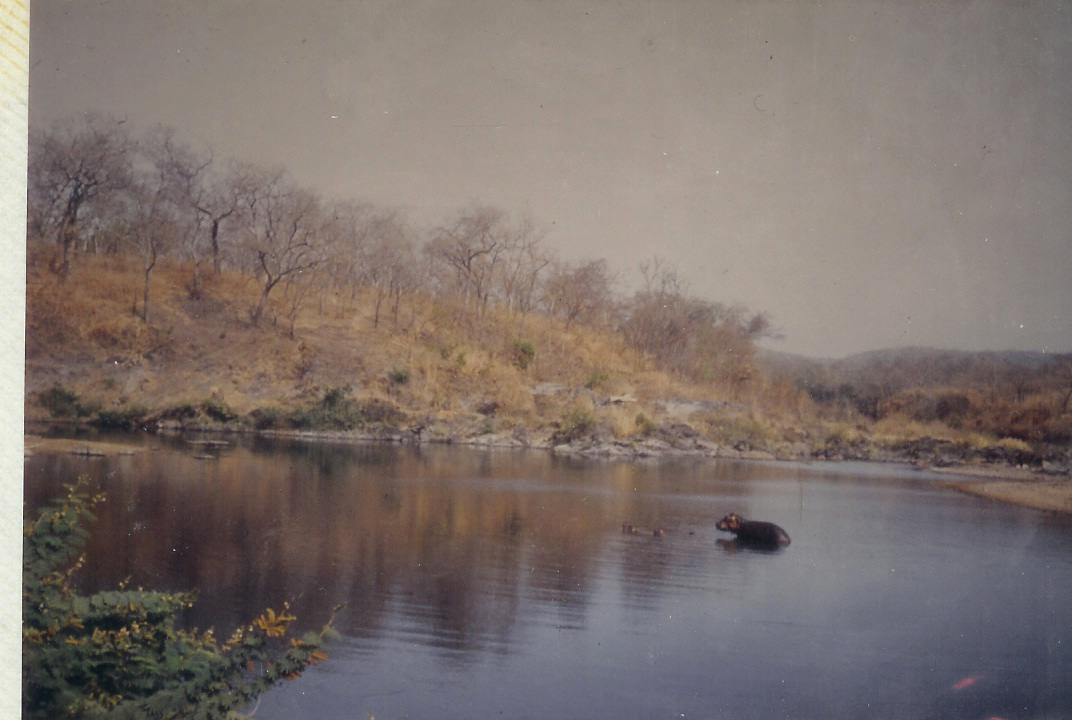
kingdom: Animalia
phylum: Chordata
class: Mammalia
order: Artiodactyla
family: Hippopotamidae
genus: Hippopotamus
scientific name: Hippopotamus amphibius
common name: Common hippopotamus
